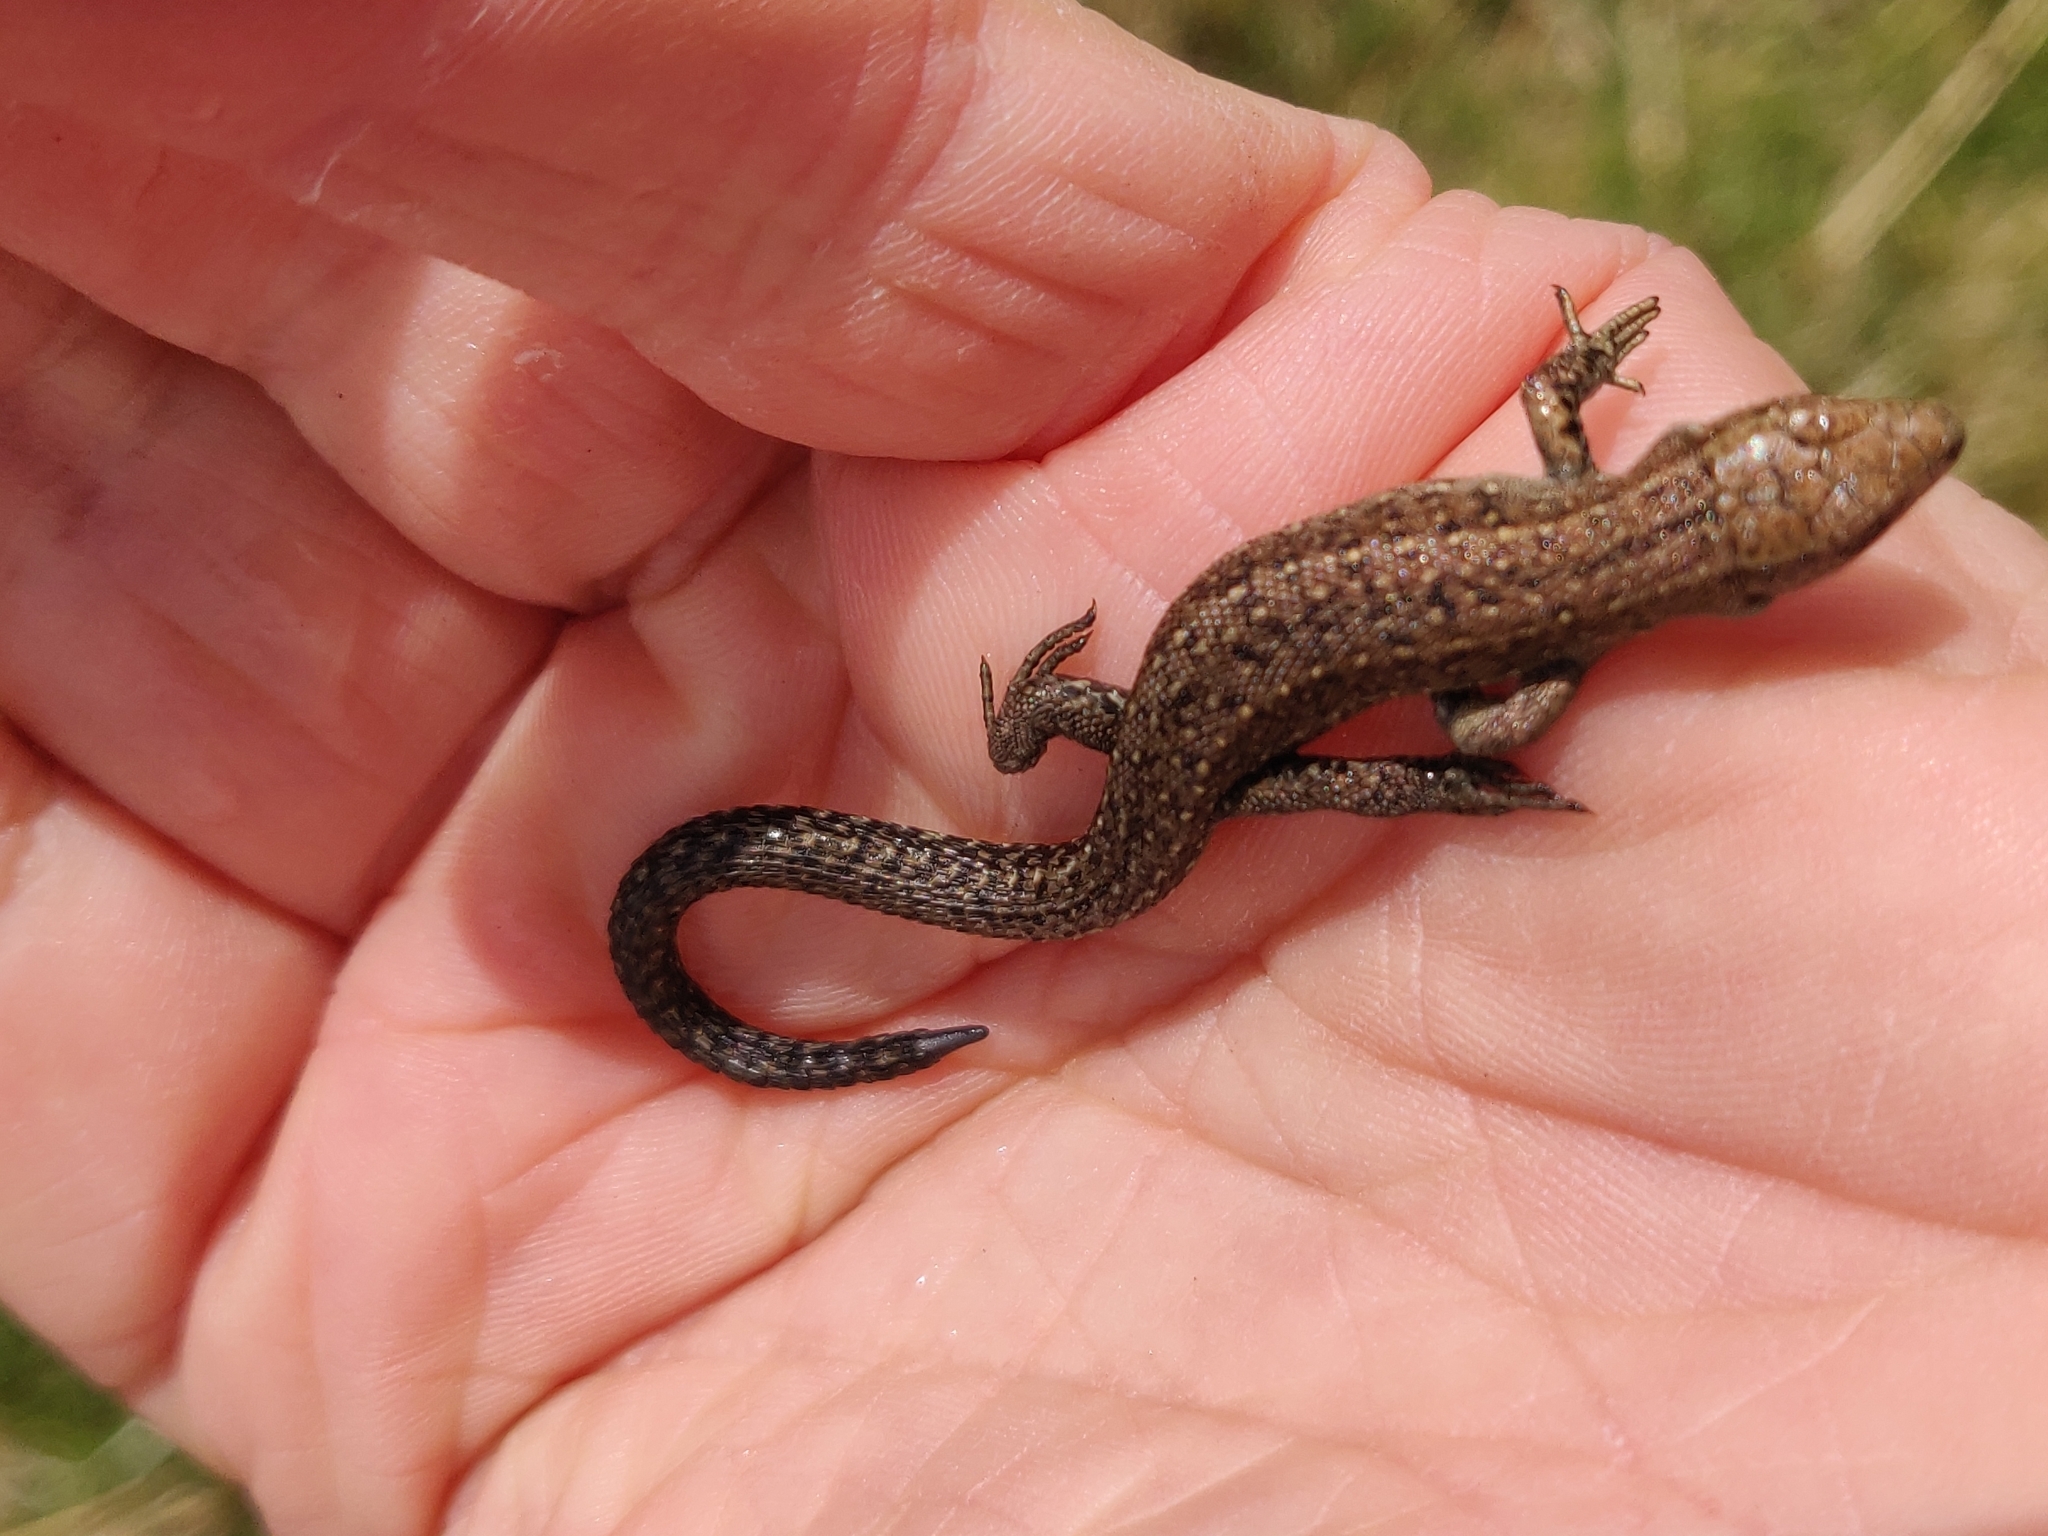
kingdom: Animalia
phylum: Chordata
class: Squamata
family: Lacertidae
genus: Zootoca
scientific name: Zootoca vivipara
